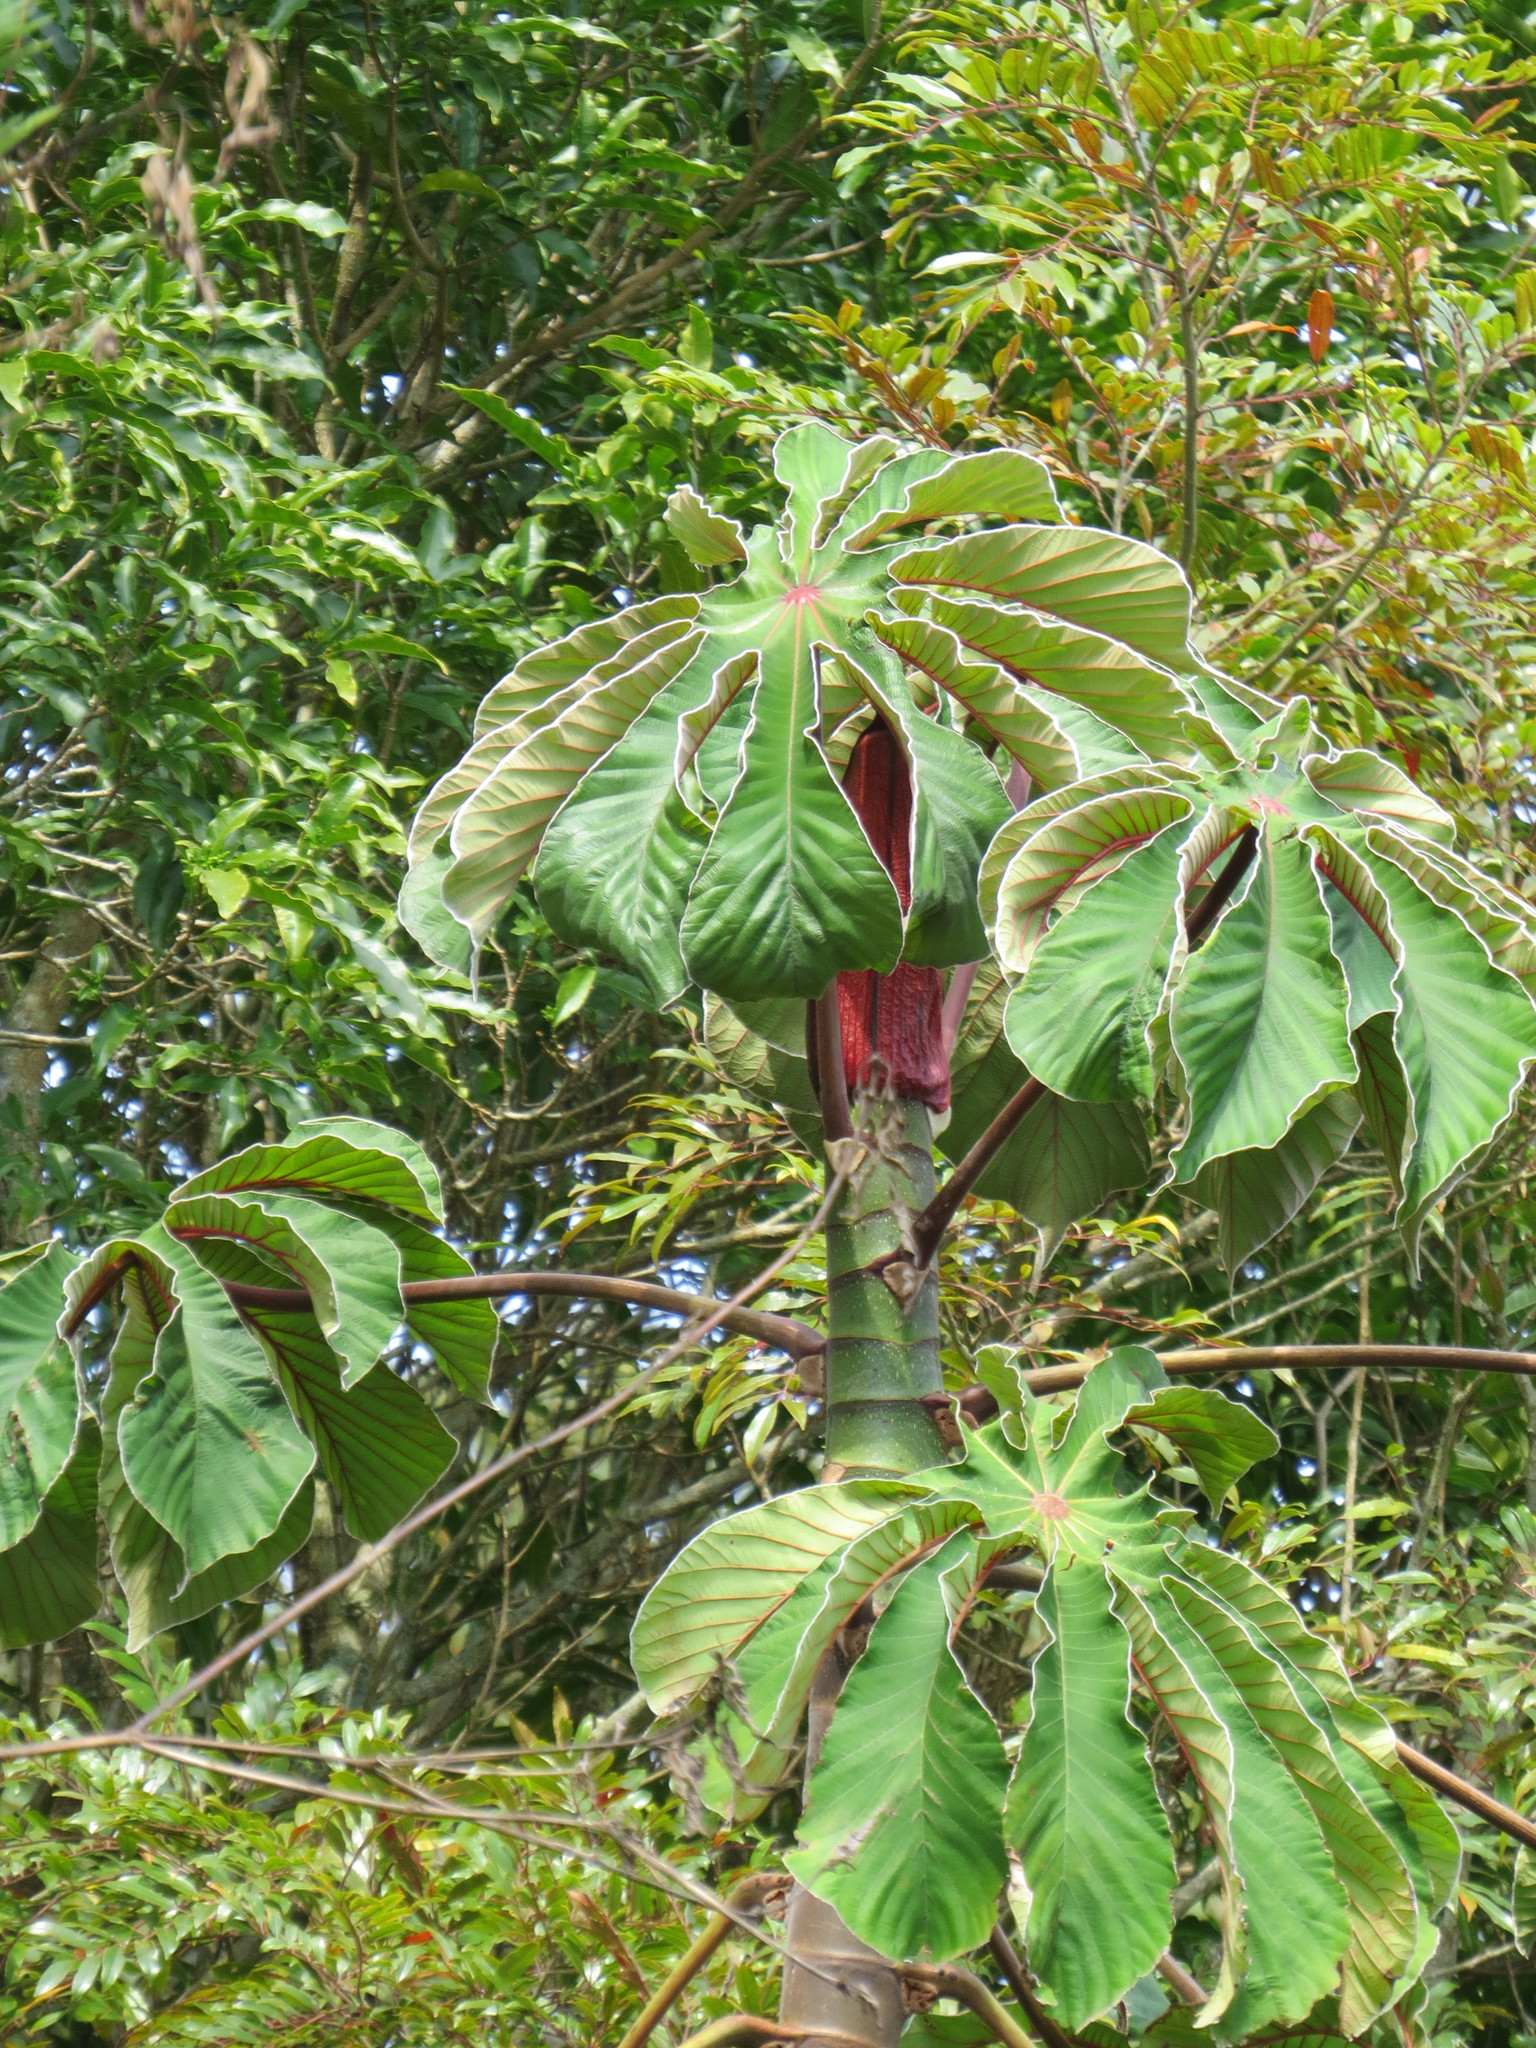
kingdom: Plantae
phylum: Tracheophyta
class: Magnoliopsida
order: Rosales
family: Urticaceae
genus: Cecropia
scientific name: Cecropia glaziovii
